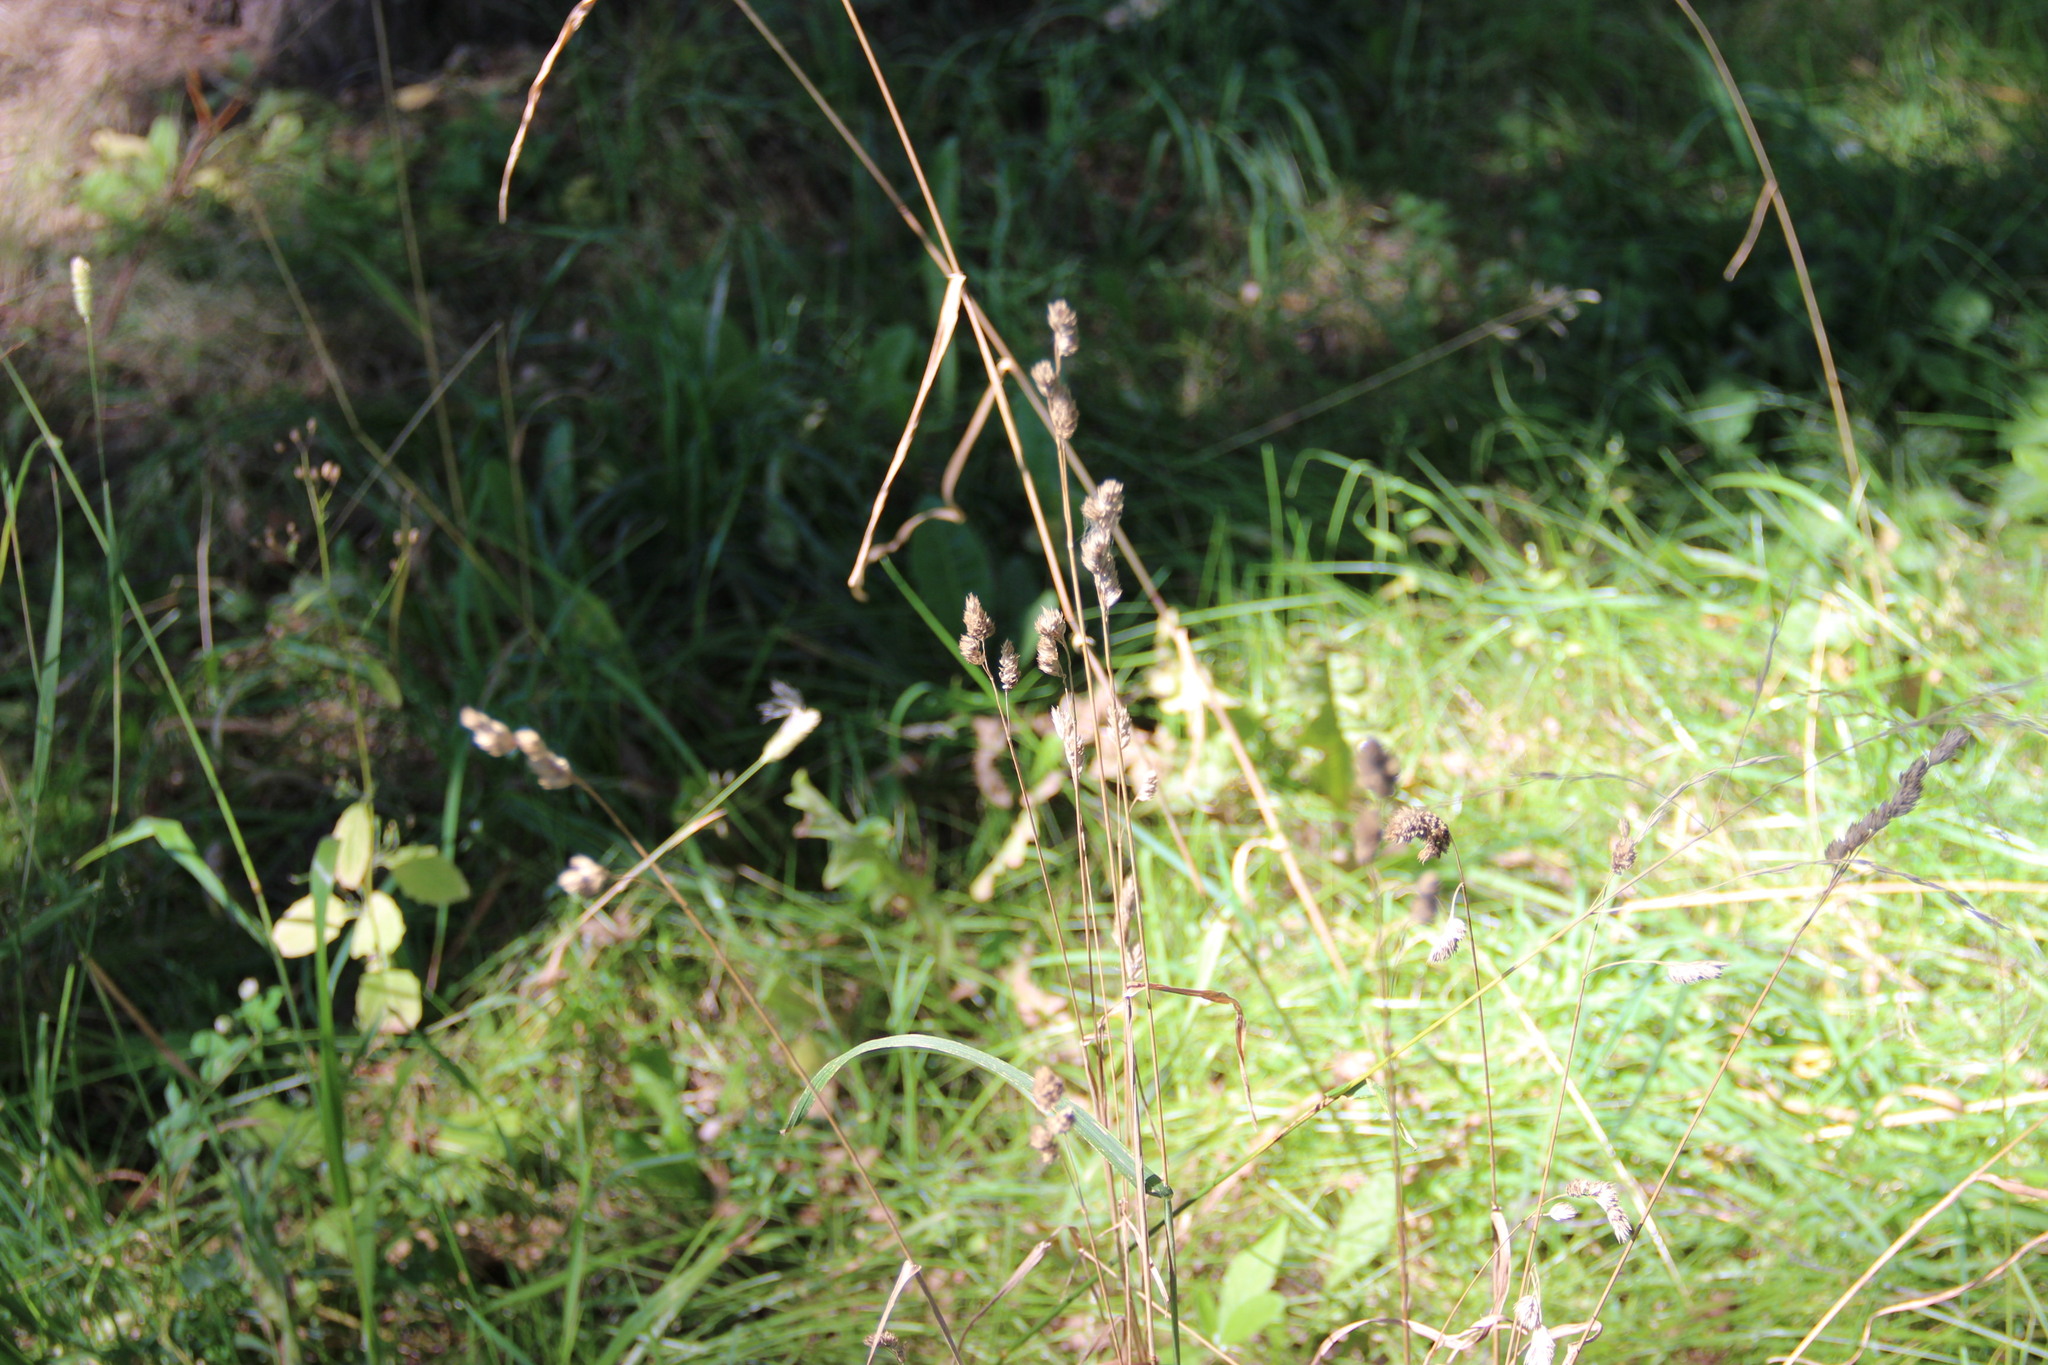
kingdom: Plantae
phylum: Tracheophyta
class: Liliopsida
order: Poales
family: Poaceae
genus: Dactylis
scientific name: Dactylis glomerata
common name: Orchardgrass
